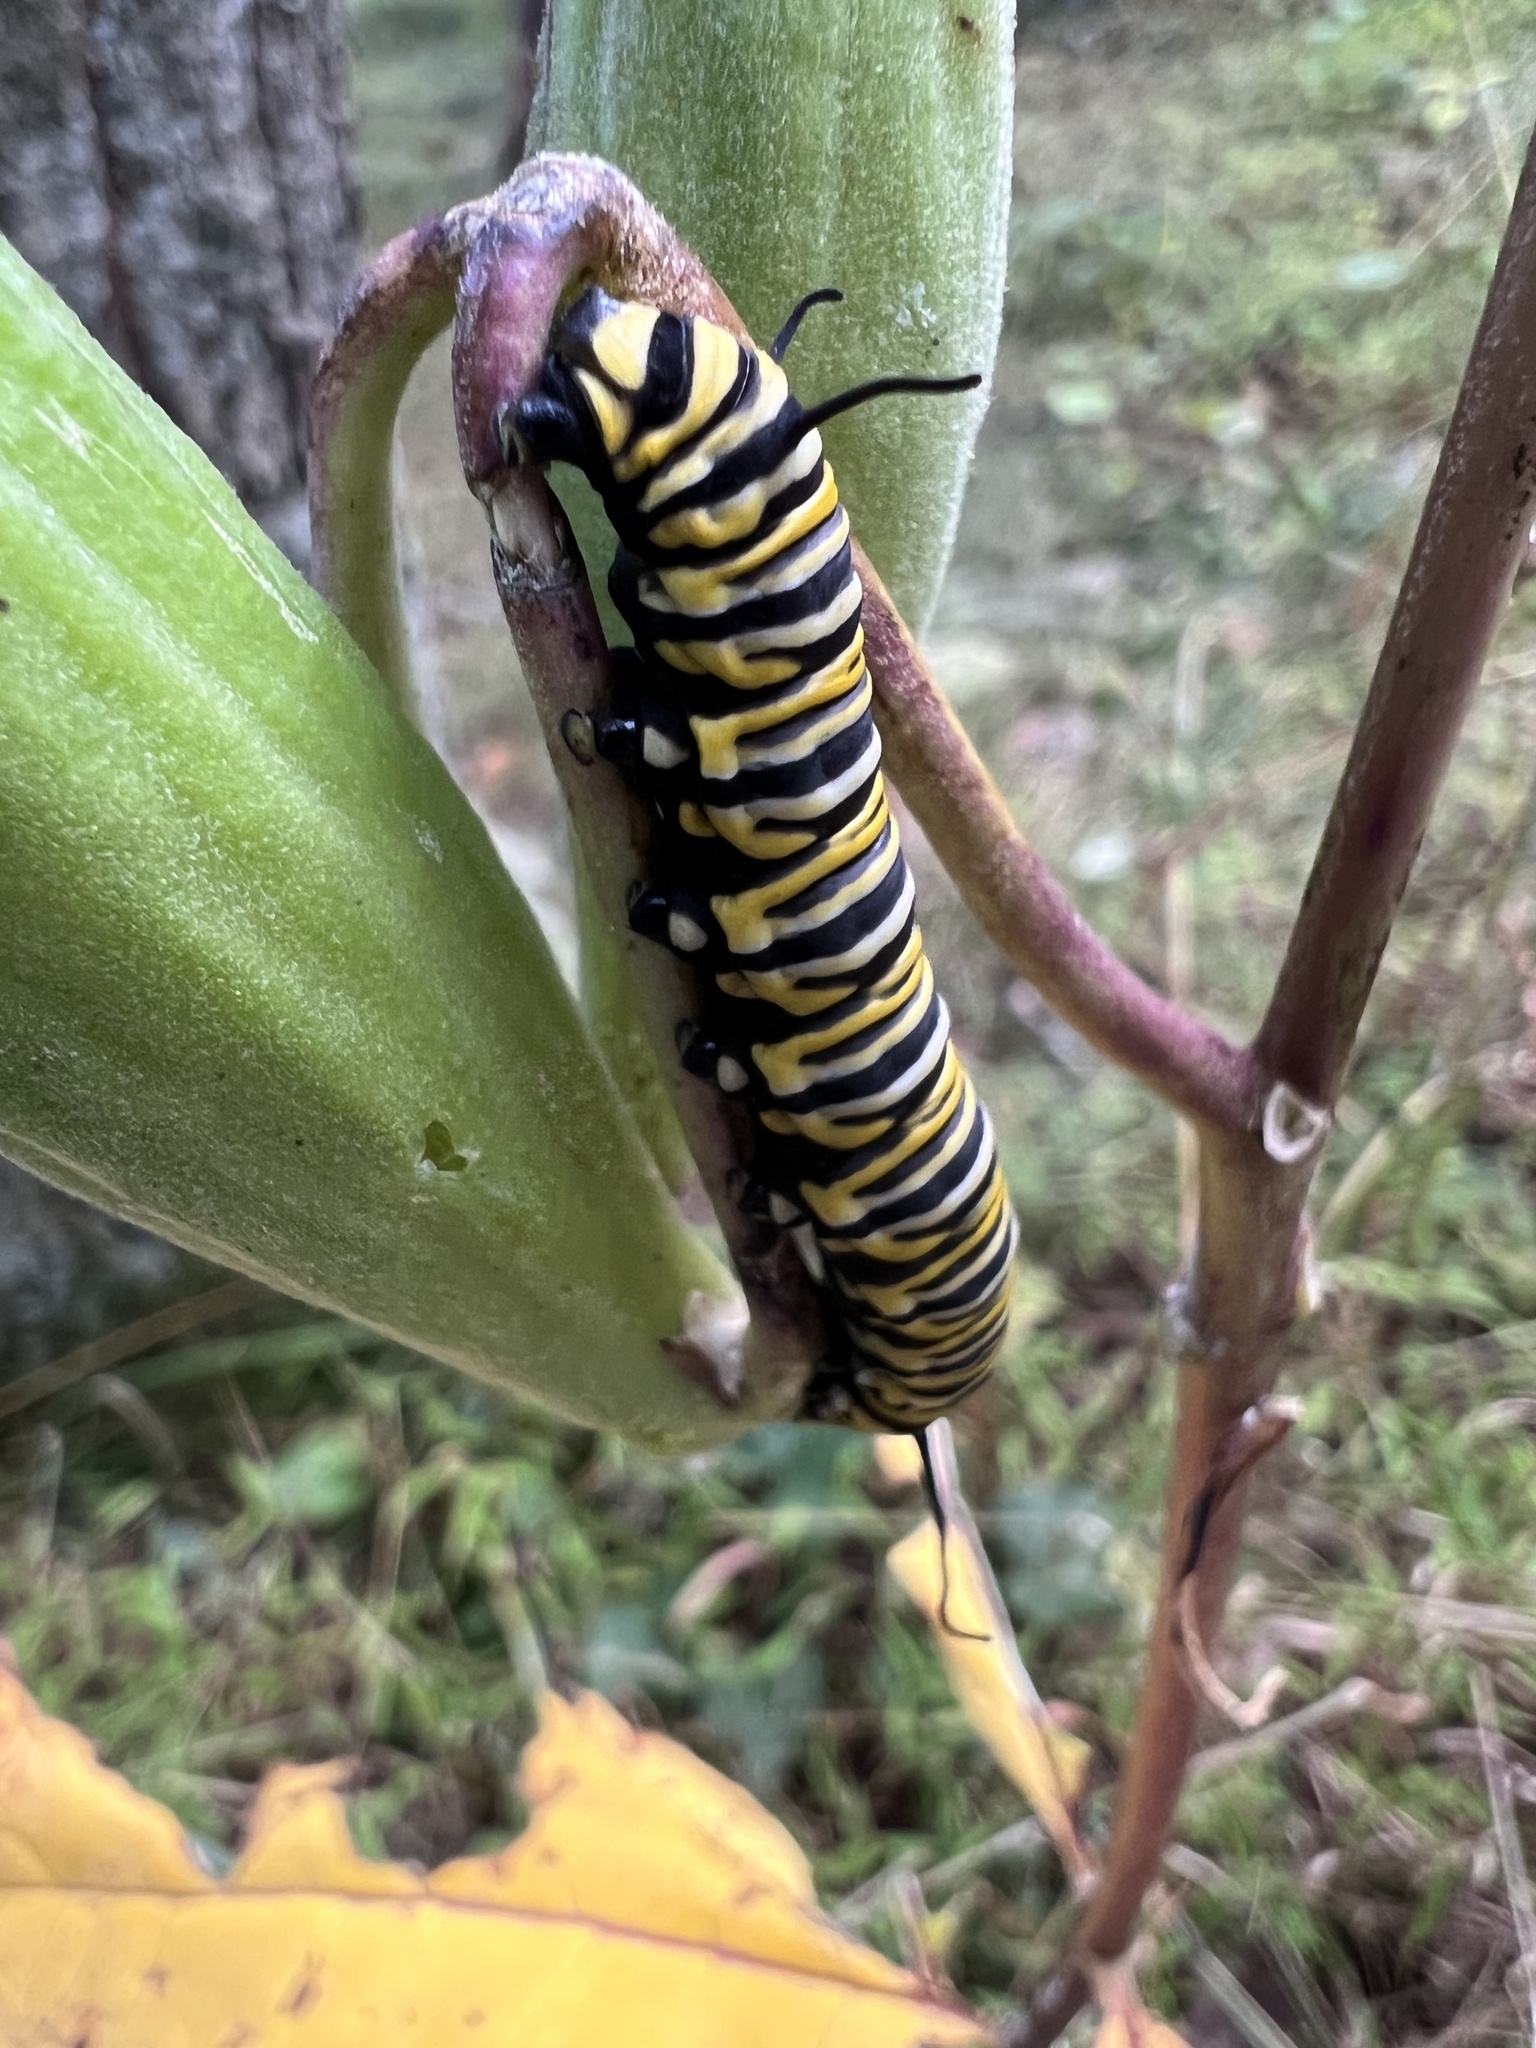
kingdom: Animalia
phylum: Arthropoda
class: Insecta
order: Lepidoptera
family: Nymphalidae
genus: Danaus
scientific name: Danaus plexippus
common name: Monarch
